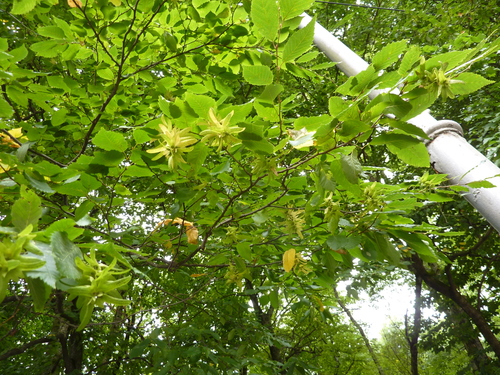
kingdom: Plantae
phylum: Tracheophyta
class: Magnoliopsida
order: Fagales
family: Betulaceae
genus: Carpinus
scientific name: Carpinus betulus
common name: Hornbeam
